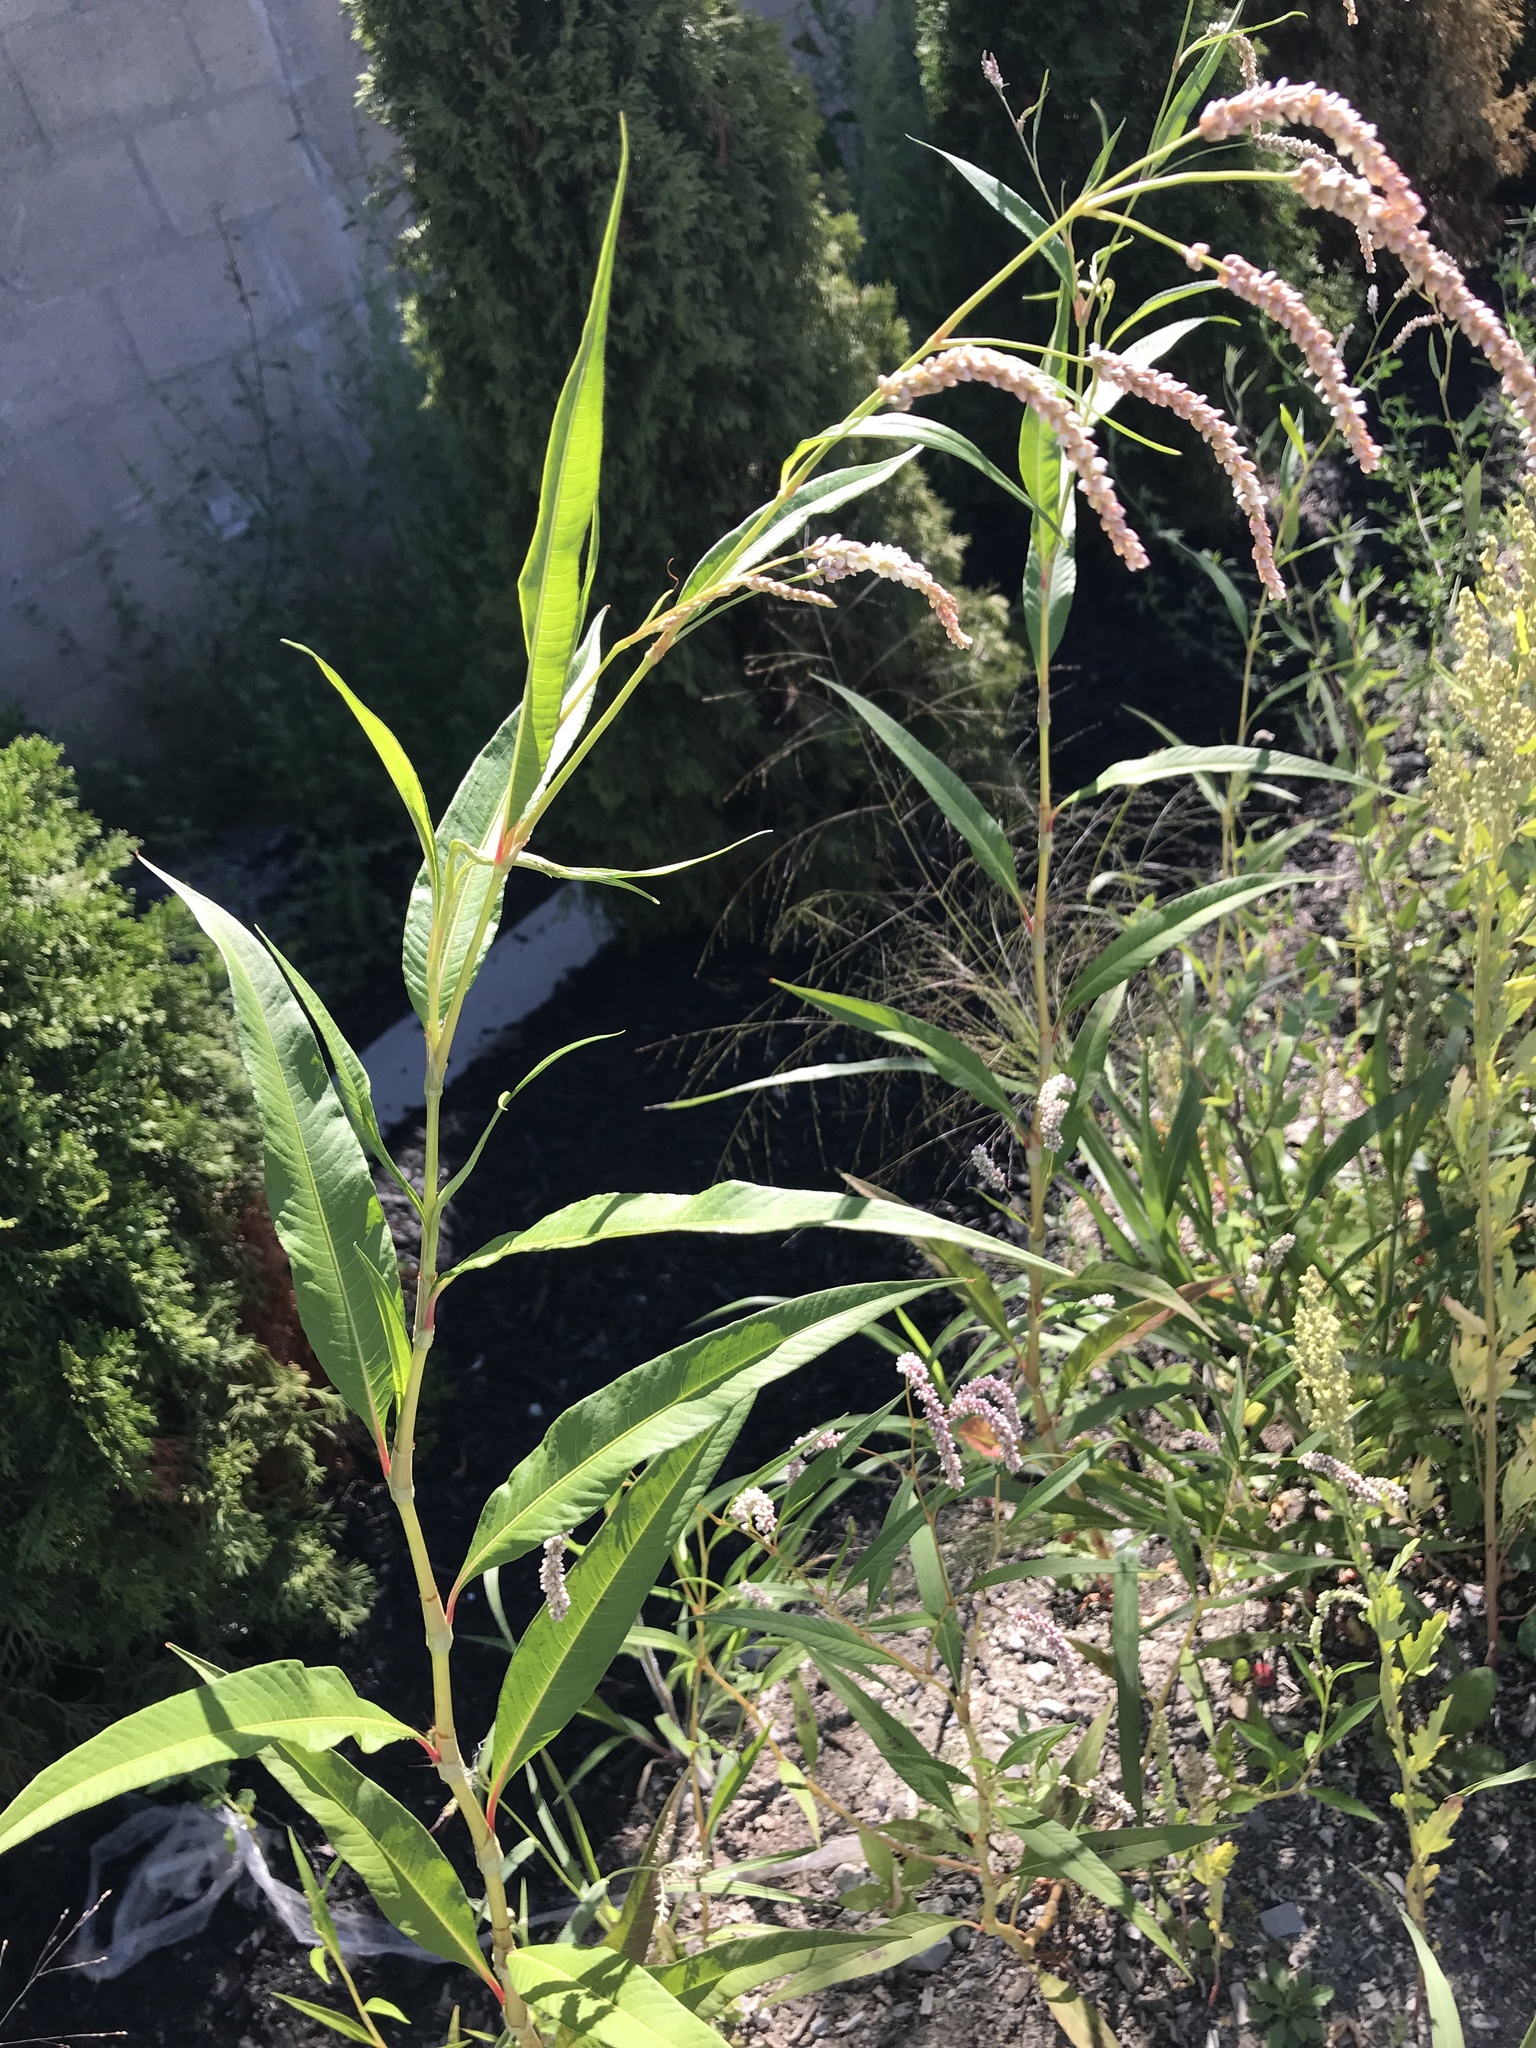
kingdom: Plantae
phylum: Tracheophyta
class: Magnoliopsida
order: Caryophyllales
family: Polygonaceae
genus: Persicaria
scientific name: Persicaria lapathifolia
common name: Curlytop knotweed
